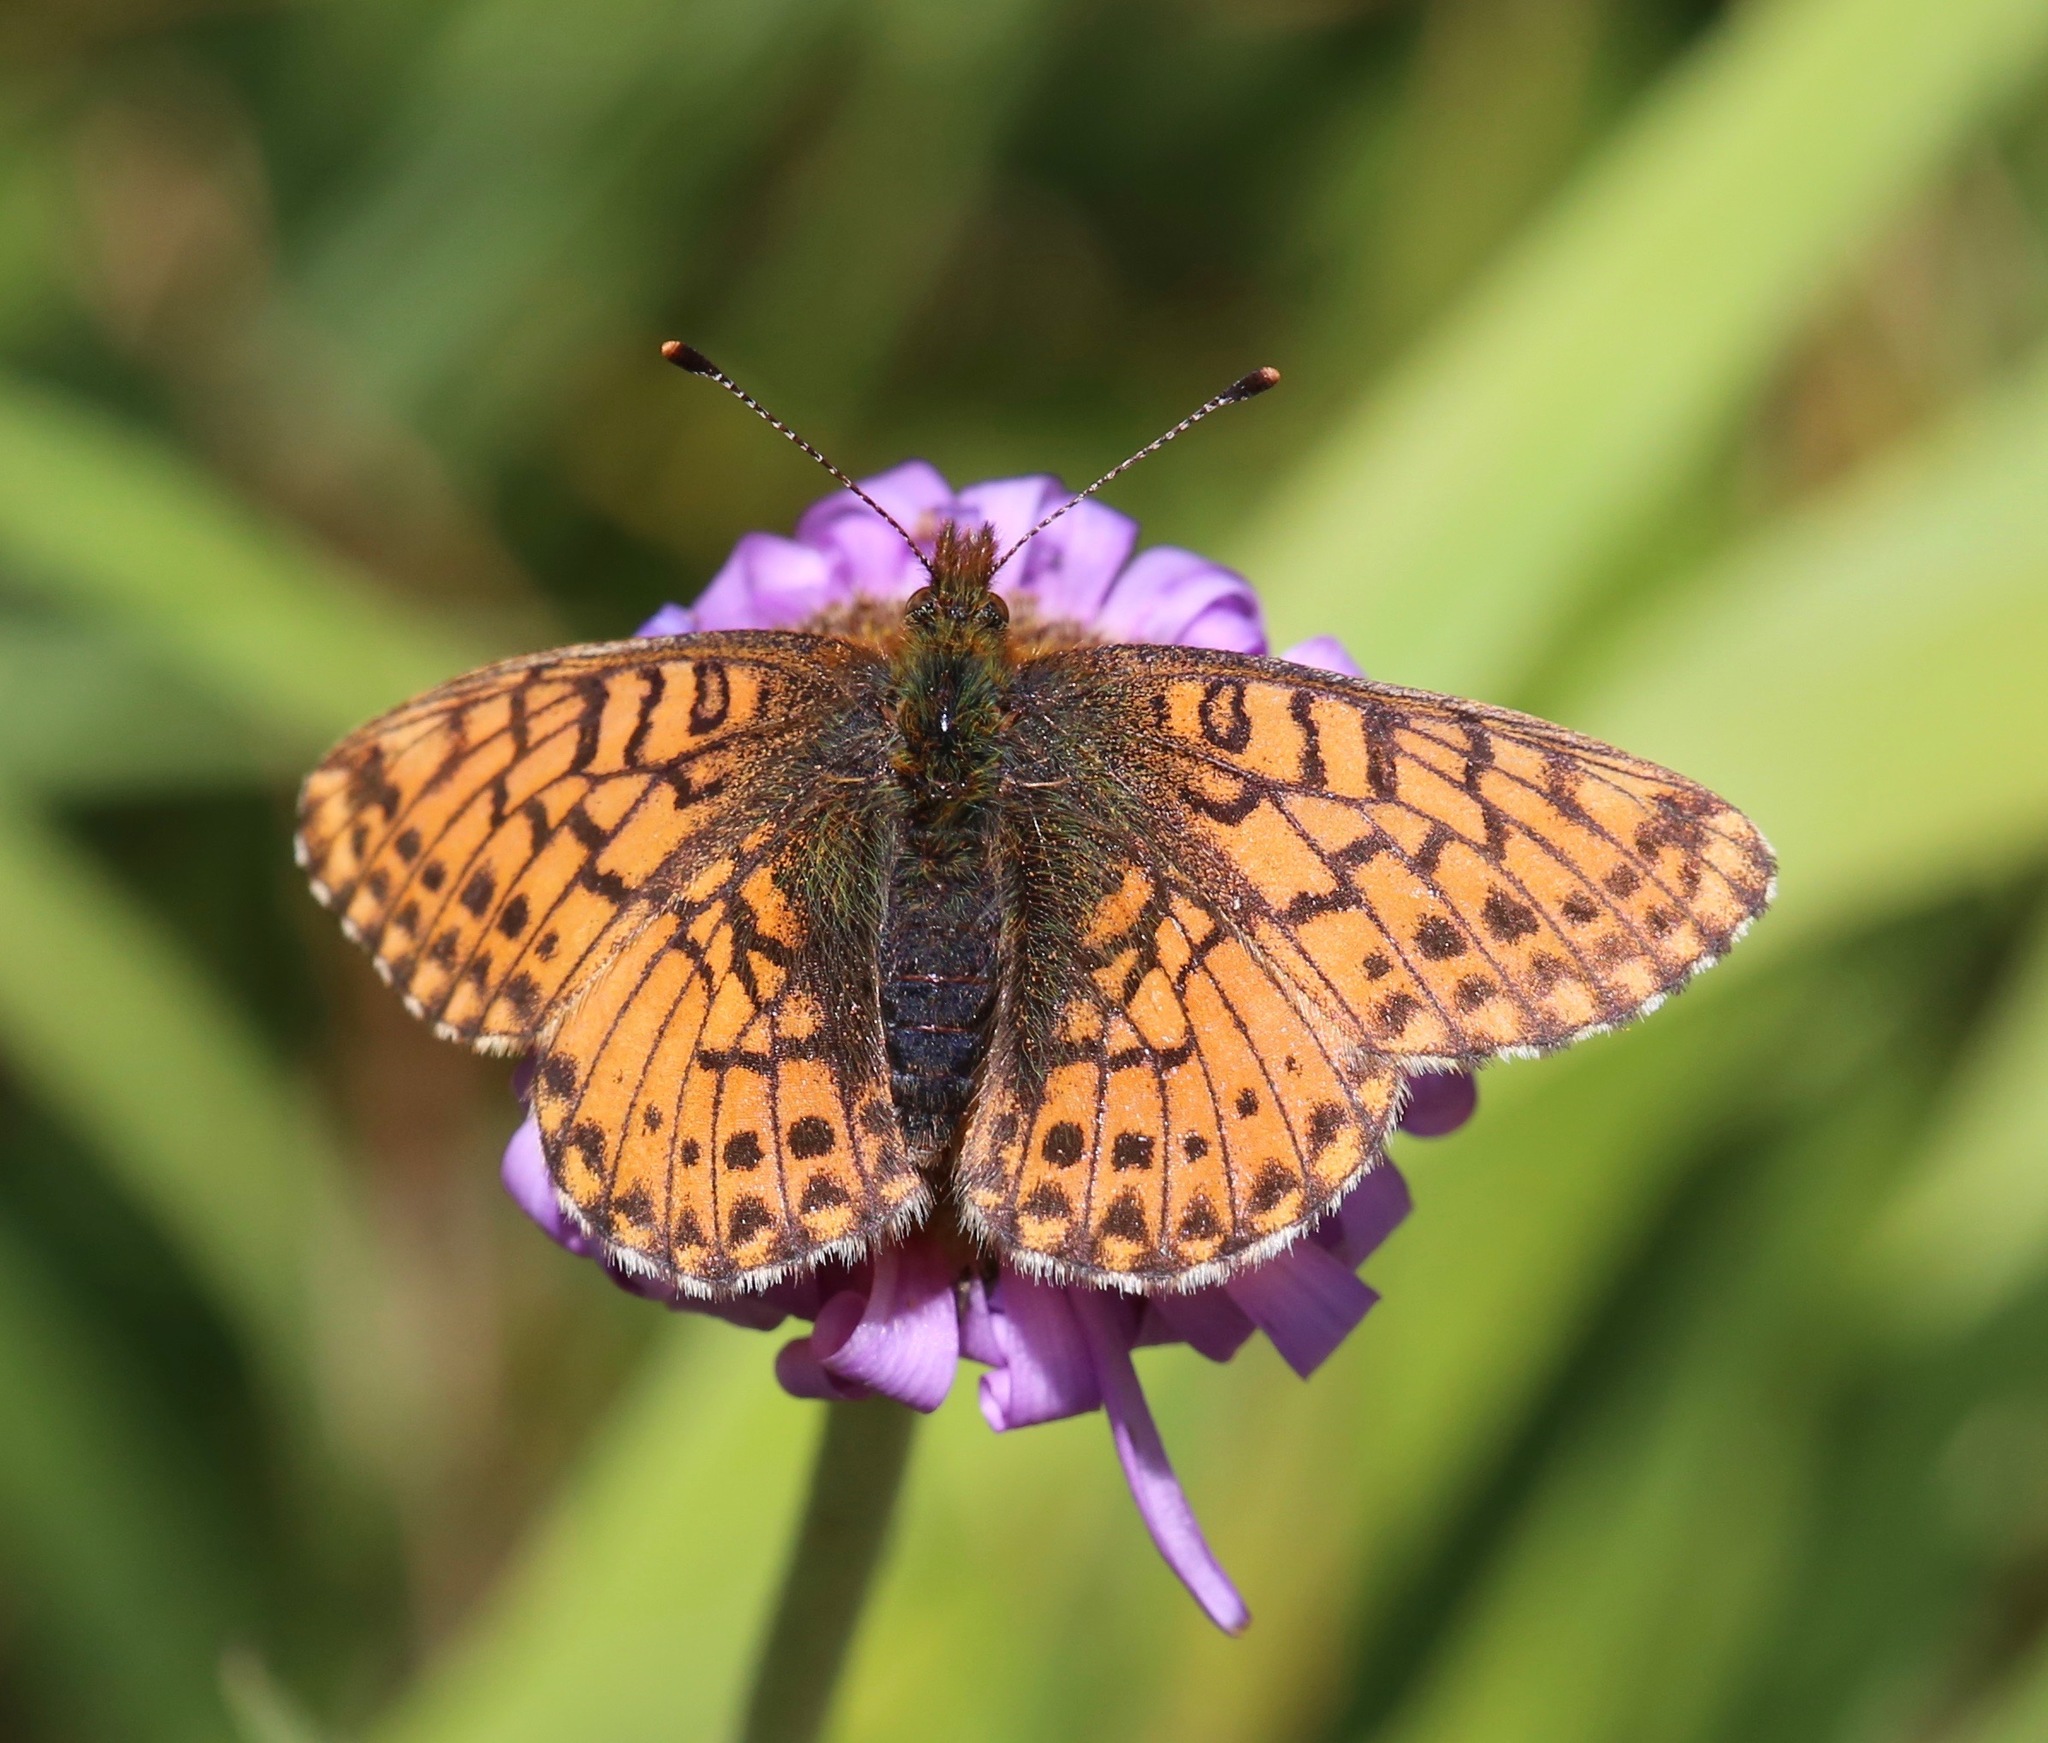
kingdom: Animalia
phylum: Arthropoda
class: Insecta
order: Lepidoptera
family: Nymphalidae
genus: Boloria
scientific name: Boloria chariclea
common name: Arctic fritillary
